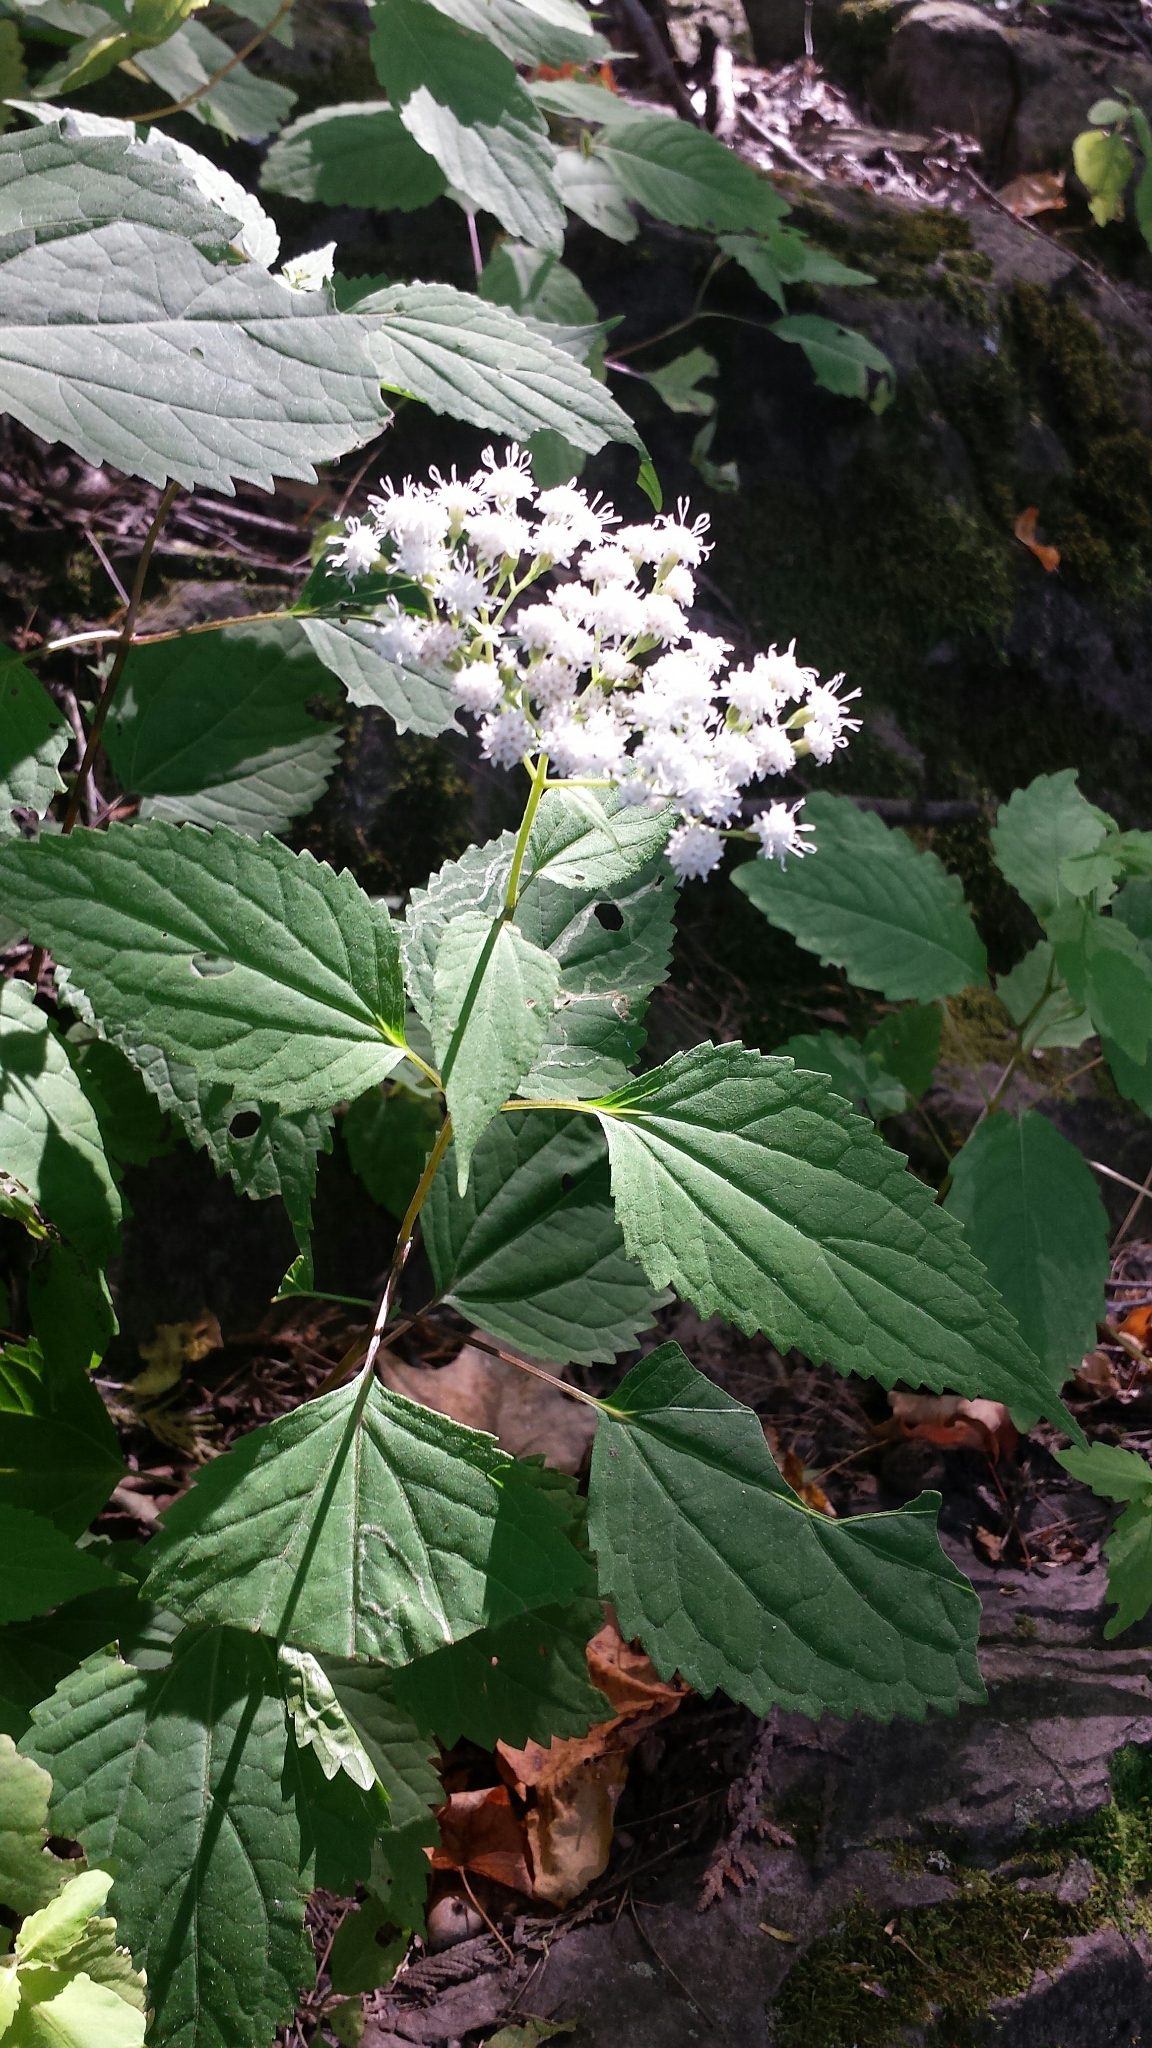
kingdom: Plantae
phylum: Tracheophyta
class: Magnoliopsida
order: Asterales
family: Asteraceae
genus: Ageratina
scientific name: Ageratina altissima
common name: White snakeroot
